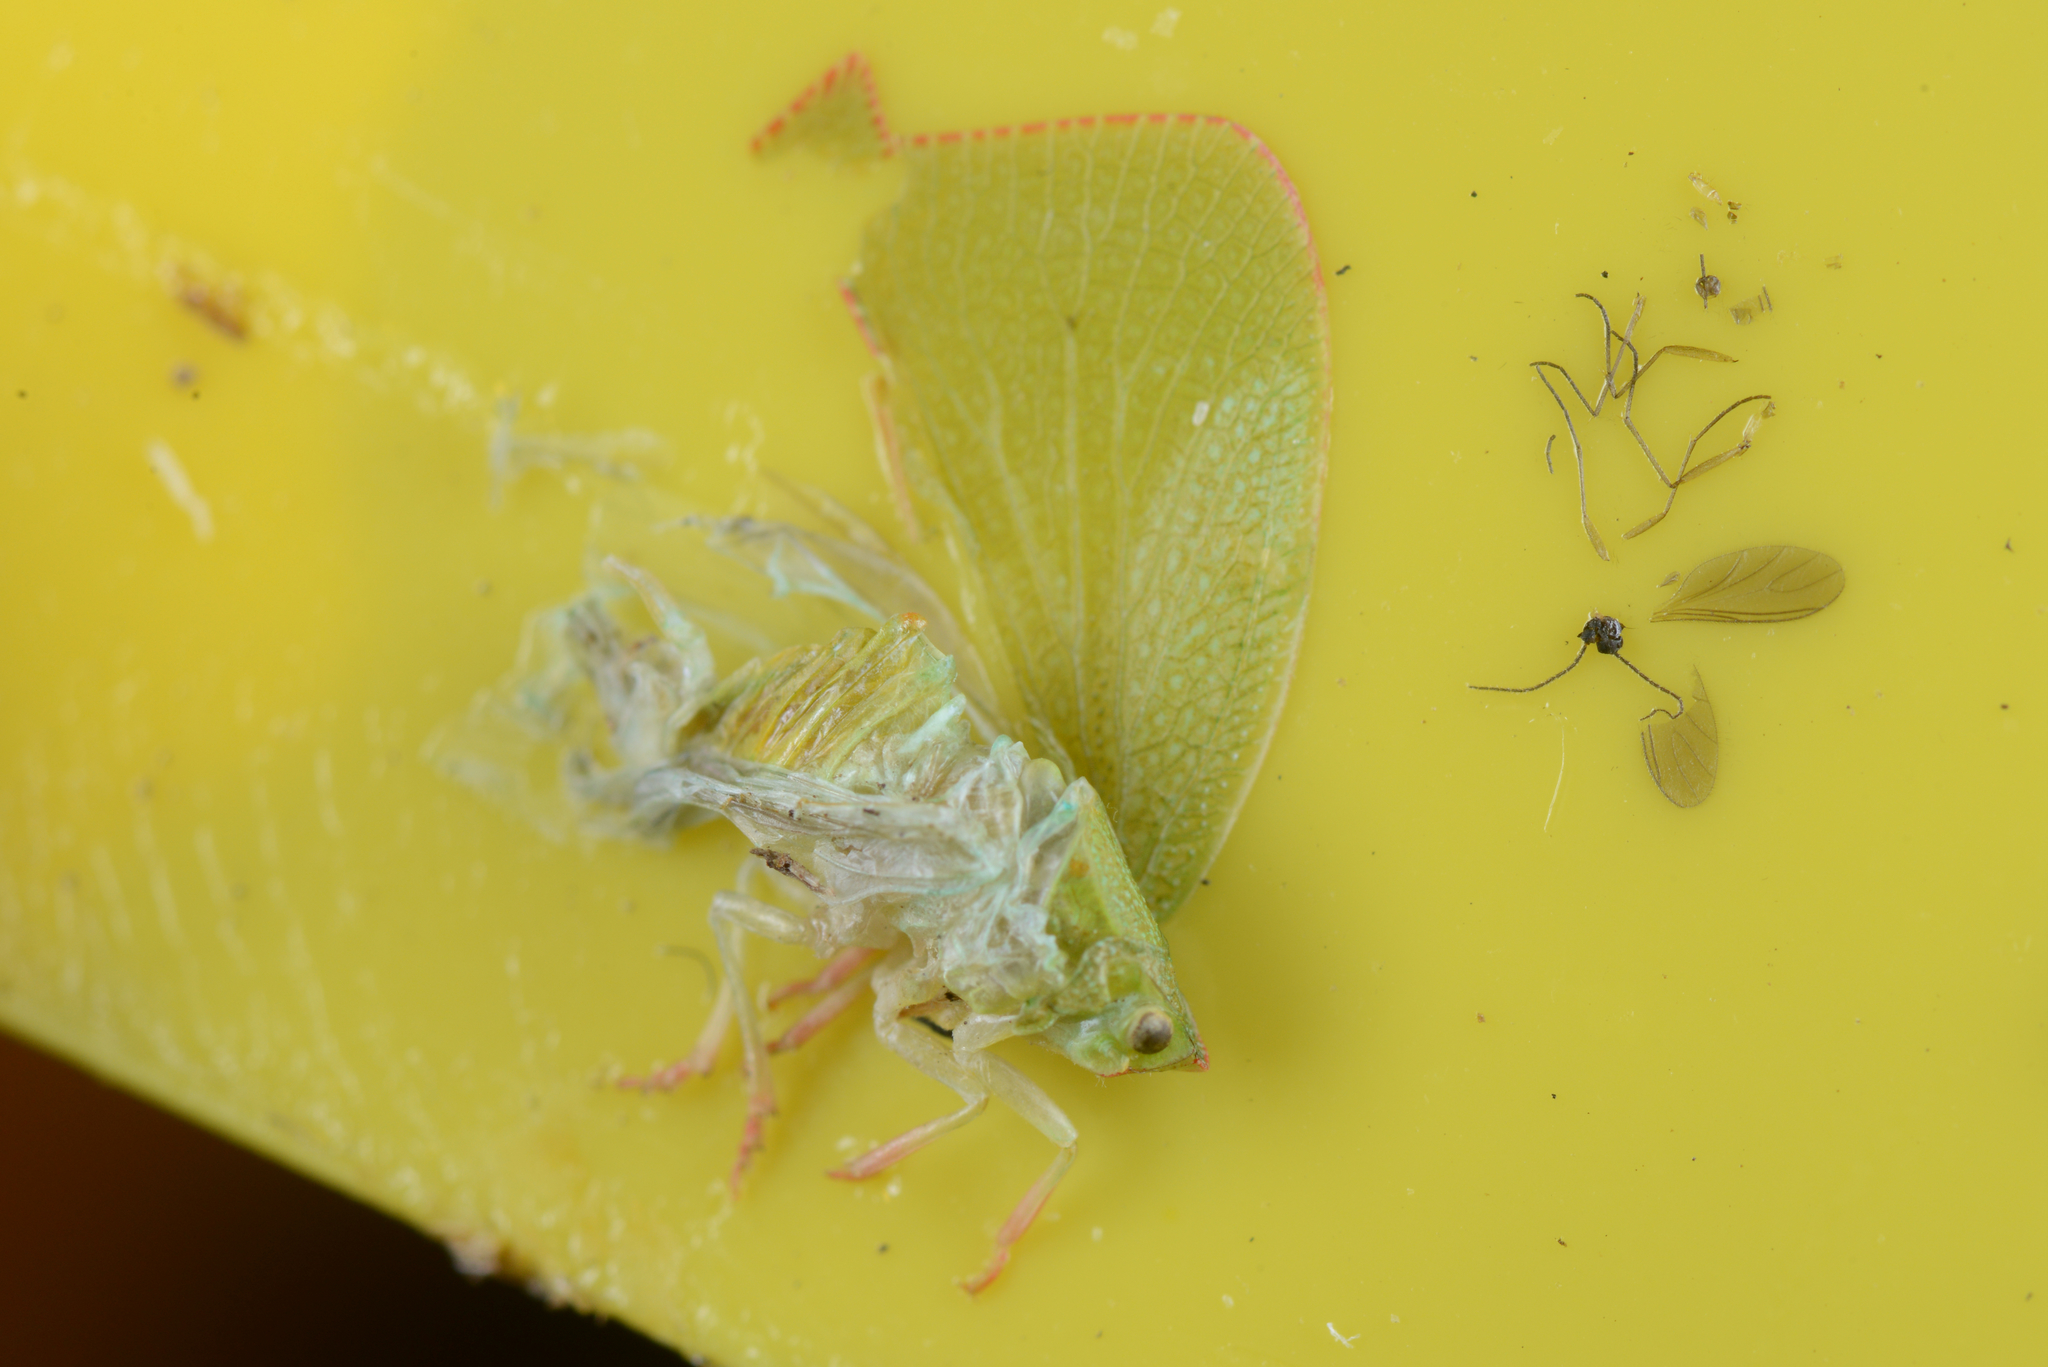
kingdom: Animalia
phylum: Arthropoda
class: Insecta
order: Hemiptera
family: Flatidae
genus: Siphanta
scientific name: Siphanta acuta
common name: Torpedo bug
